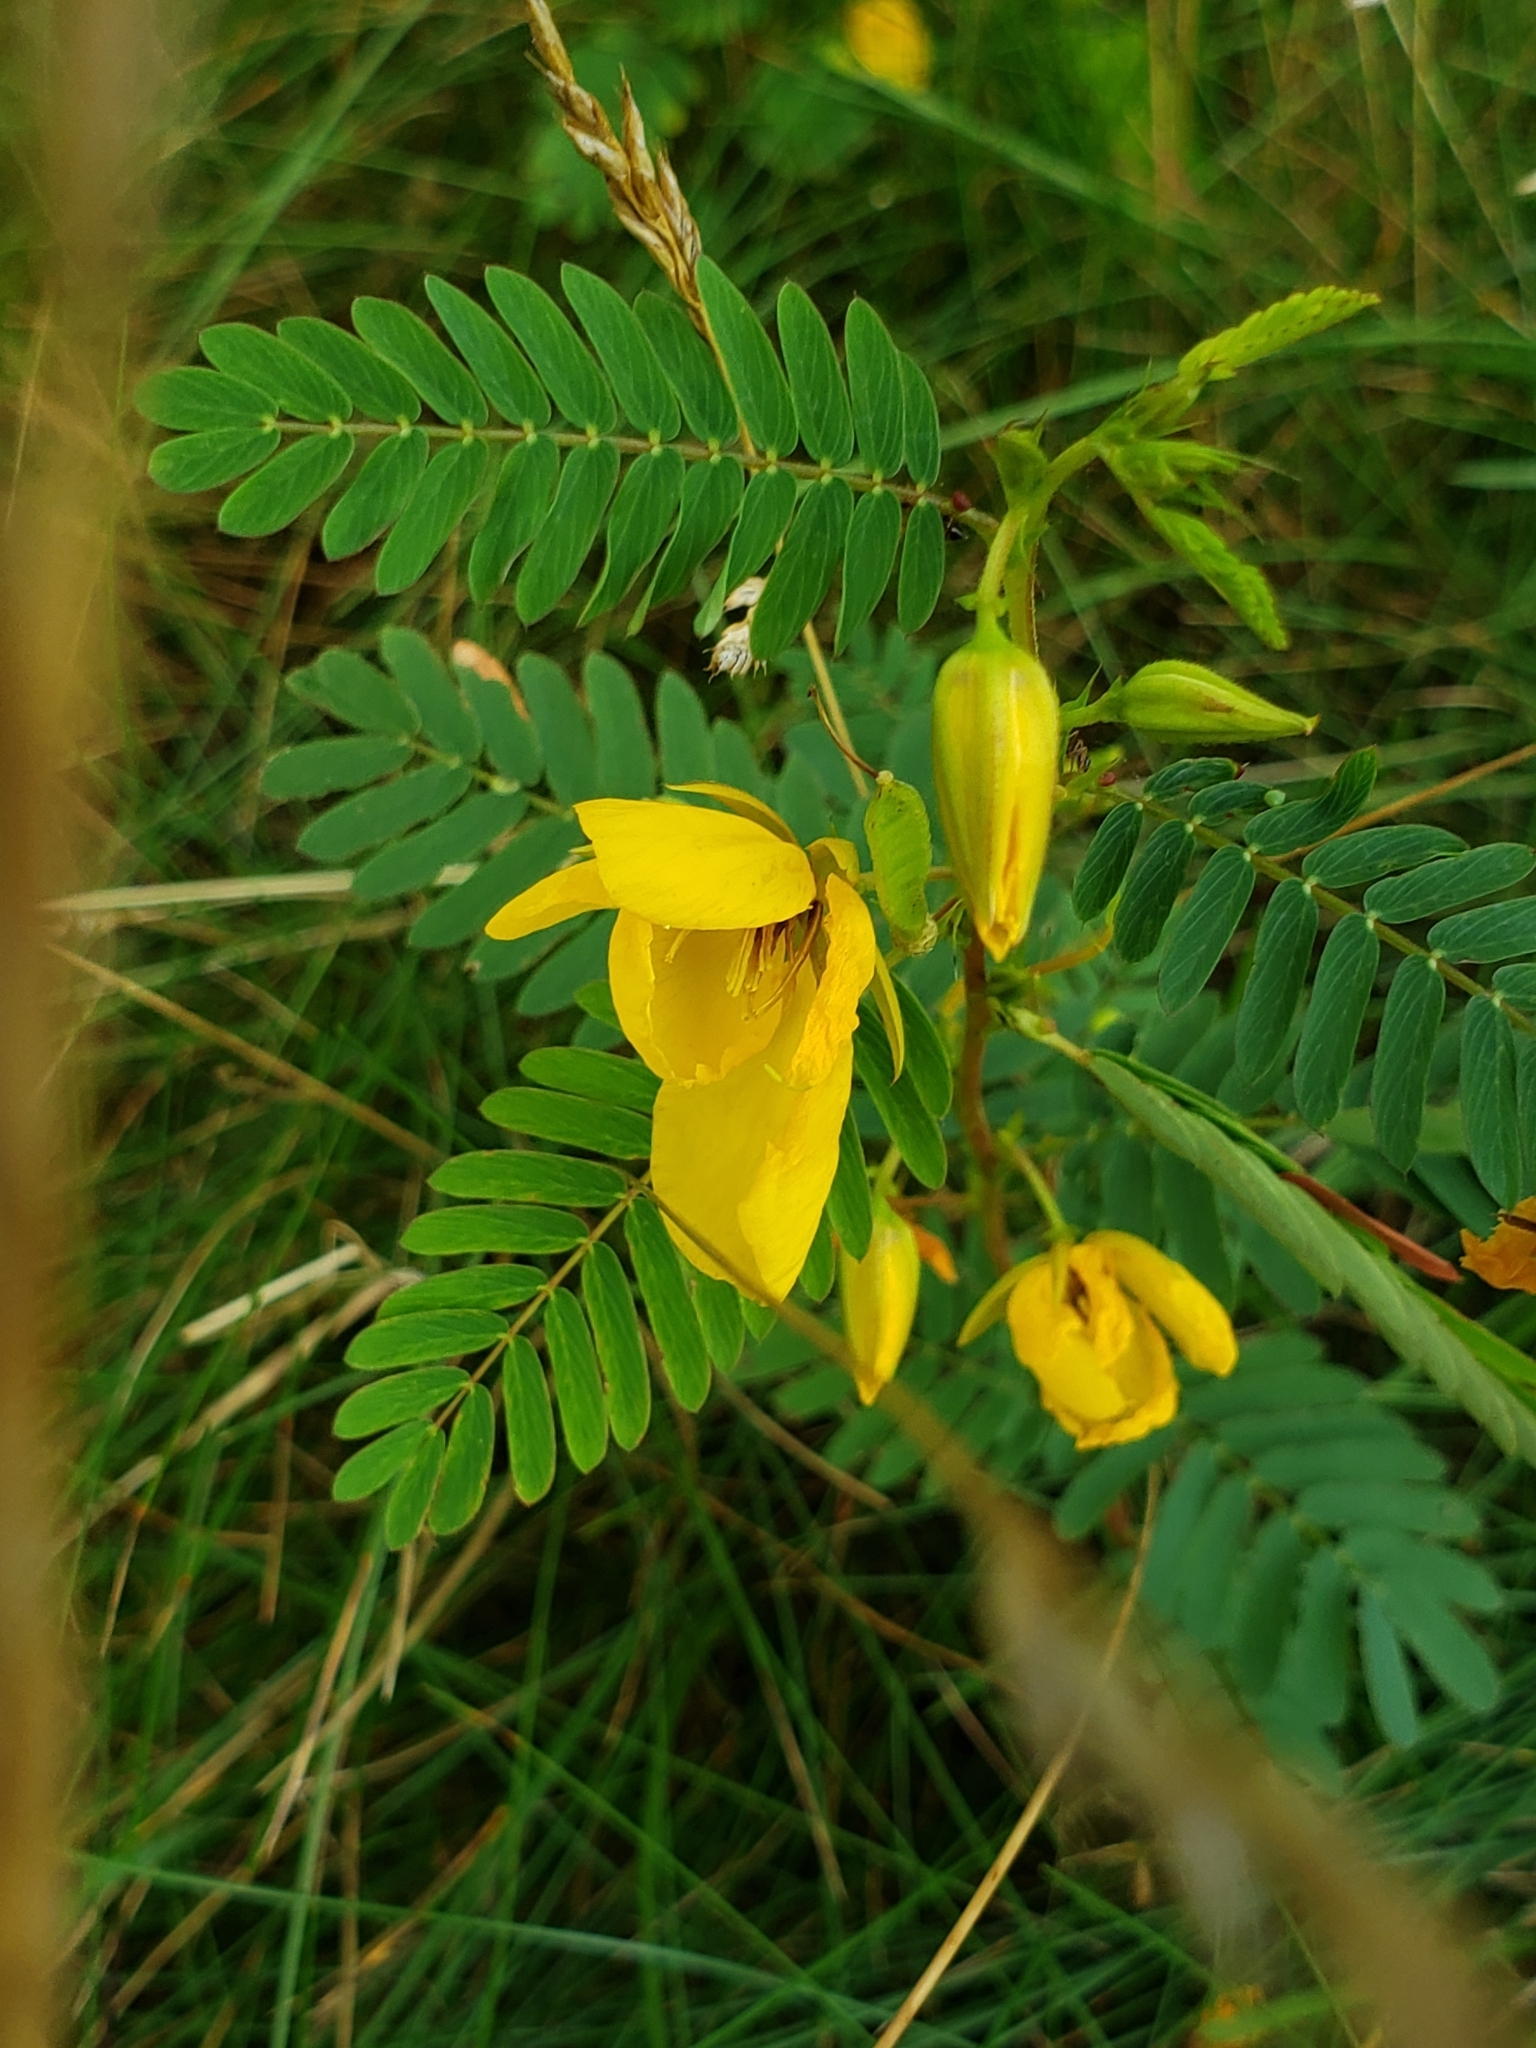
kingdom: Plantae
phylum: Tracheophyta
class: Magnoliopsida
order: Fabales
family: Fabaceae
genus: Chamaecrista
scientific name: Chamaecrista fasciculata
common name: Golden cassia
